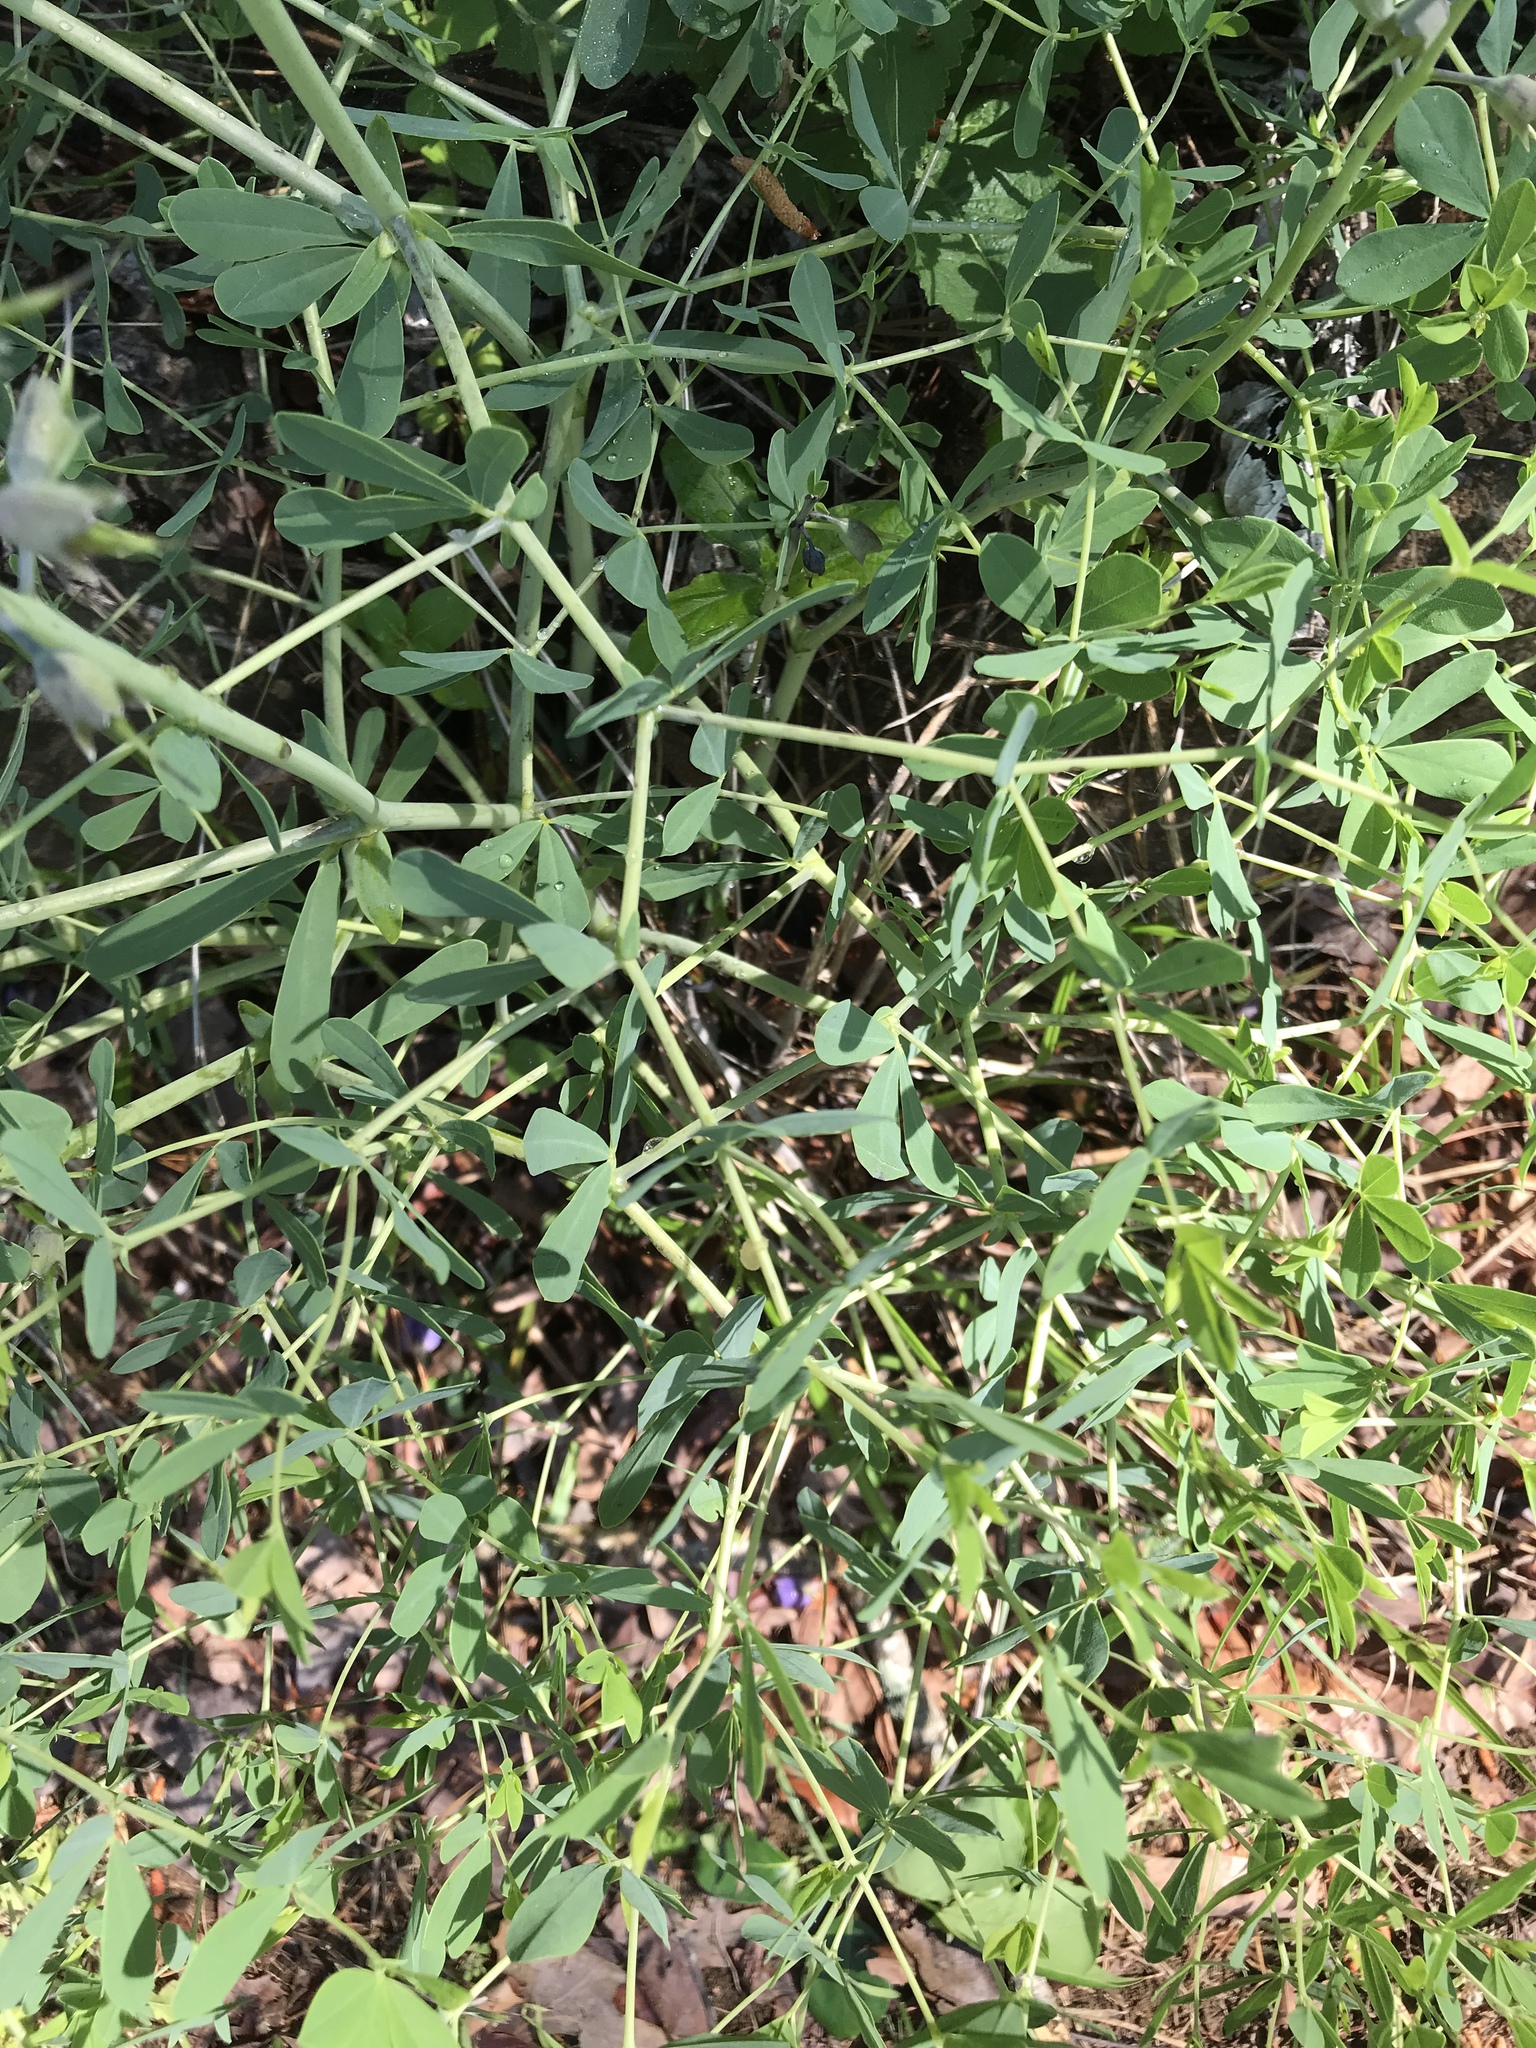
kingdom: Plantae
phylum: Tracheophyta
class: Magnoliopsida
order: Fabales
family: Fabaceae
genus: Baptisia
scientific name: Baptisia aberrans
